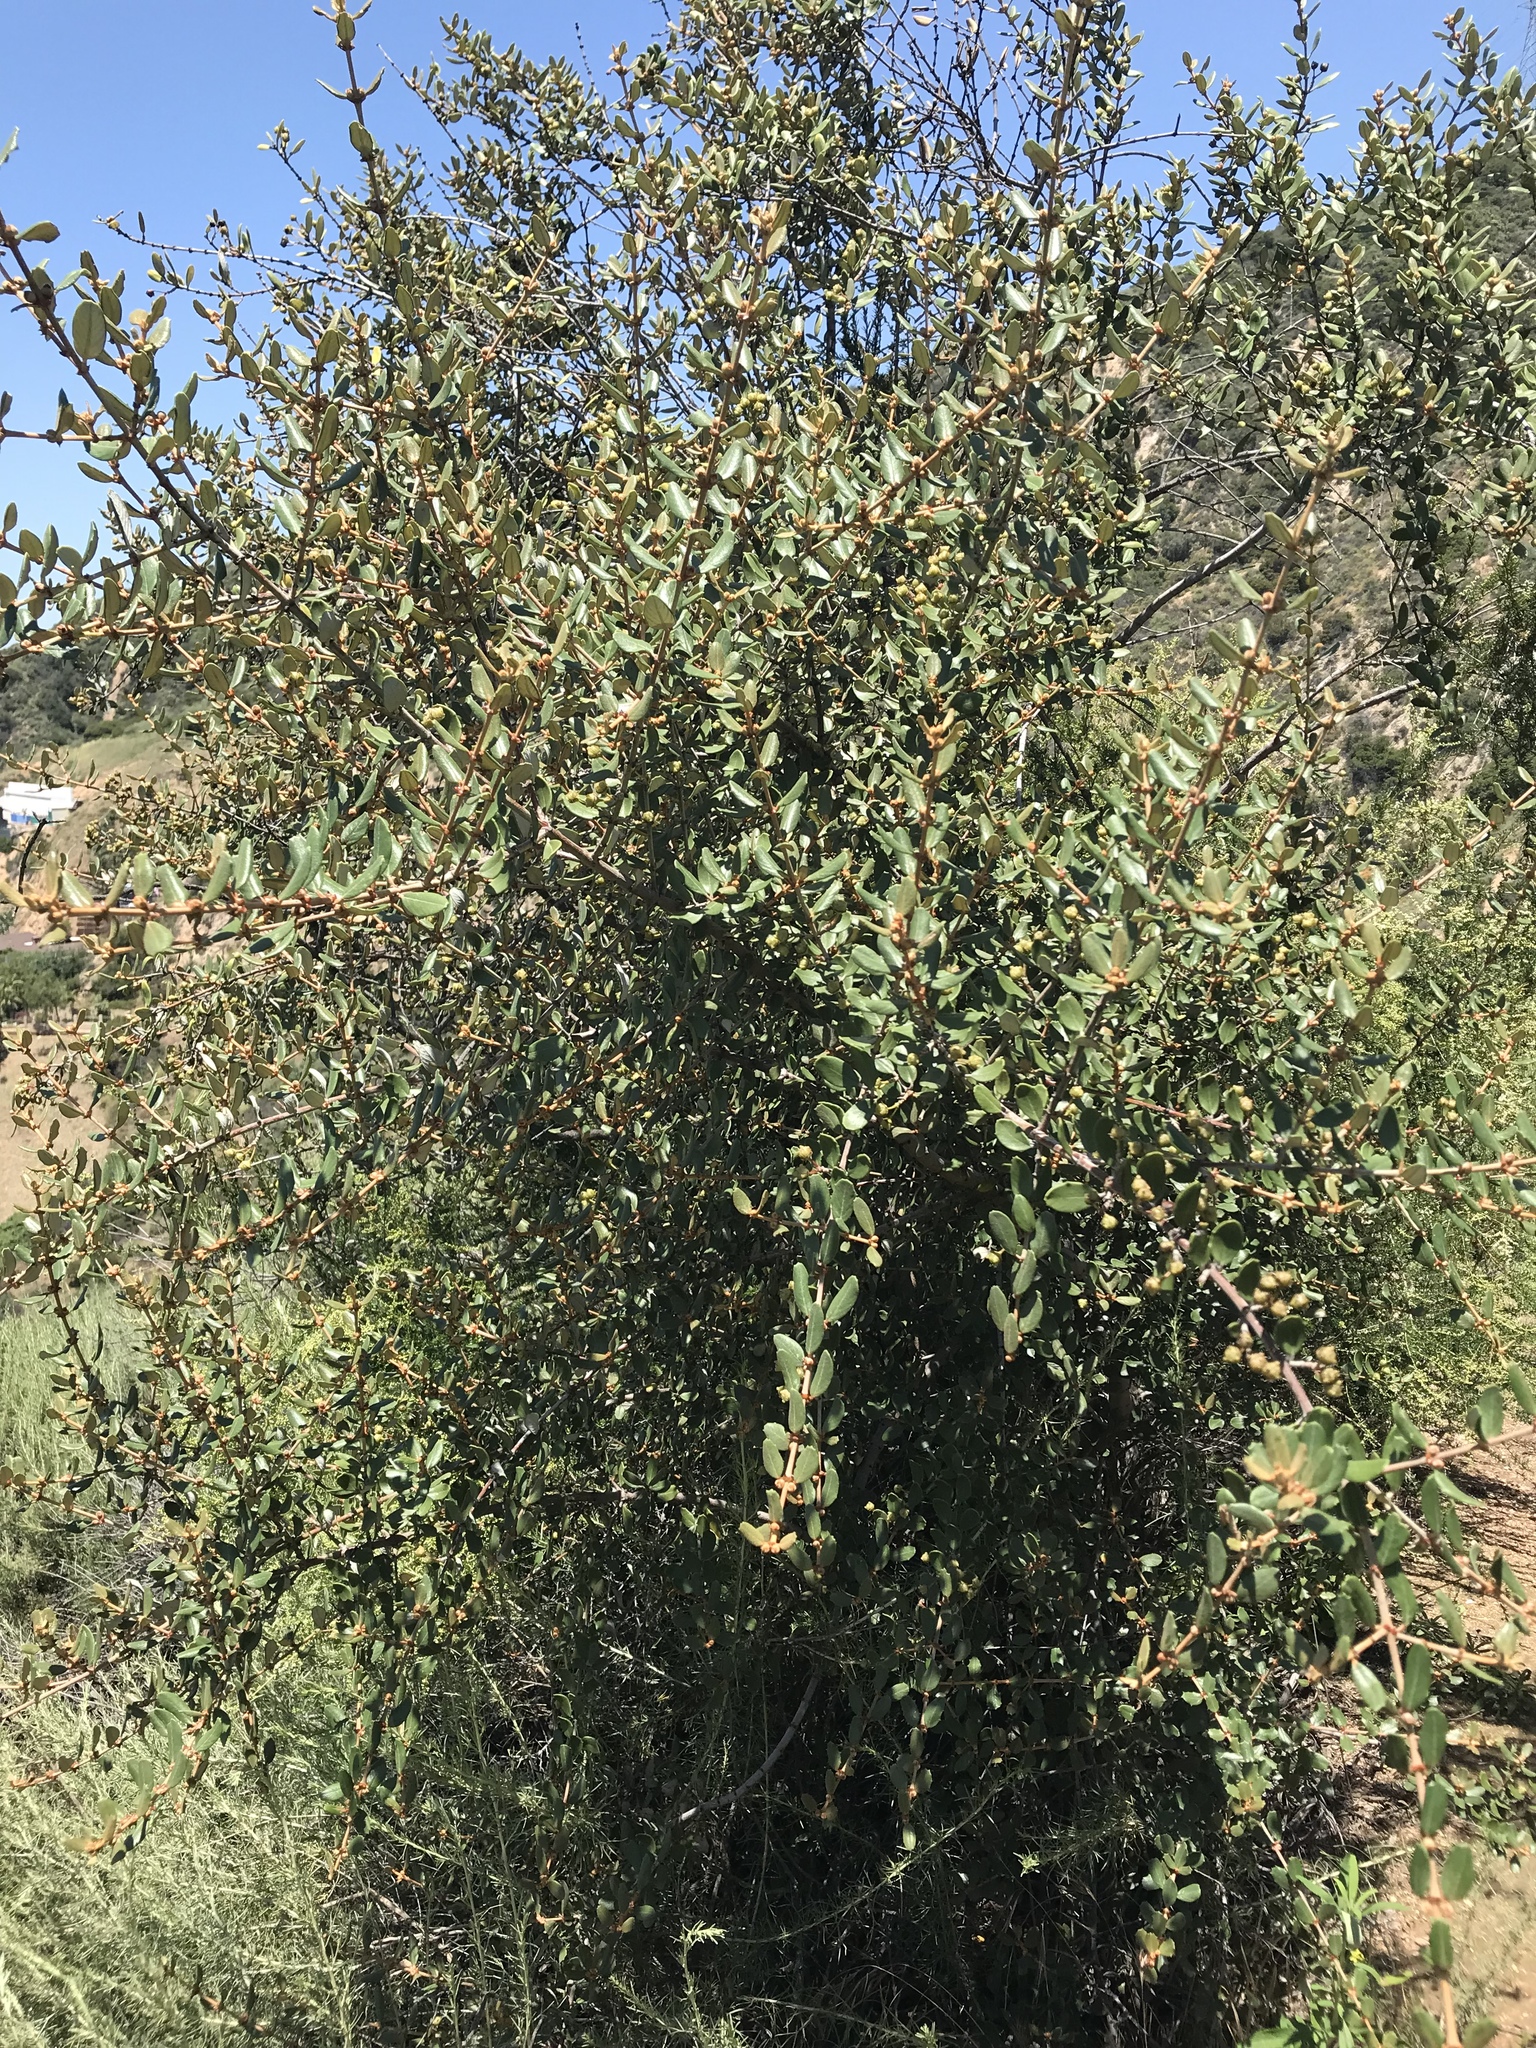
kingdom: Plantae
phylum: Tracheophyta
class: Magnoliopsida
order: Rosales
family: Rhamnaceae
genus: Ceanothus
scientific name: Ceanothus crassifolius
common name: Hoaryleaf ceanothus
